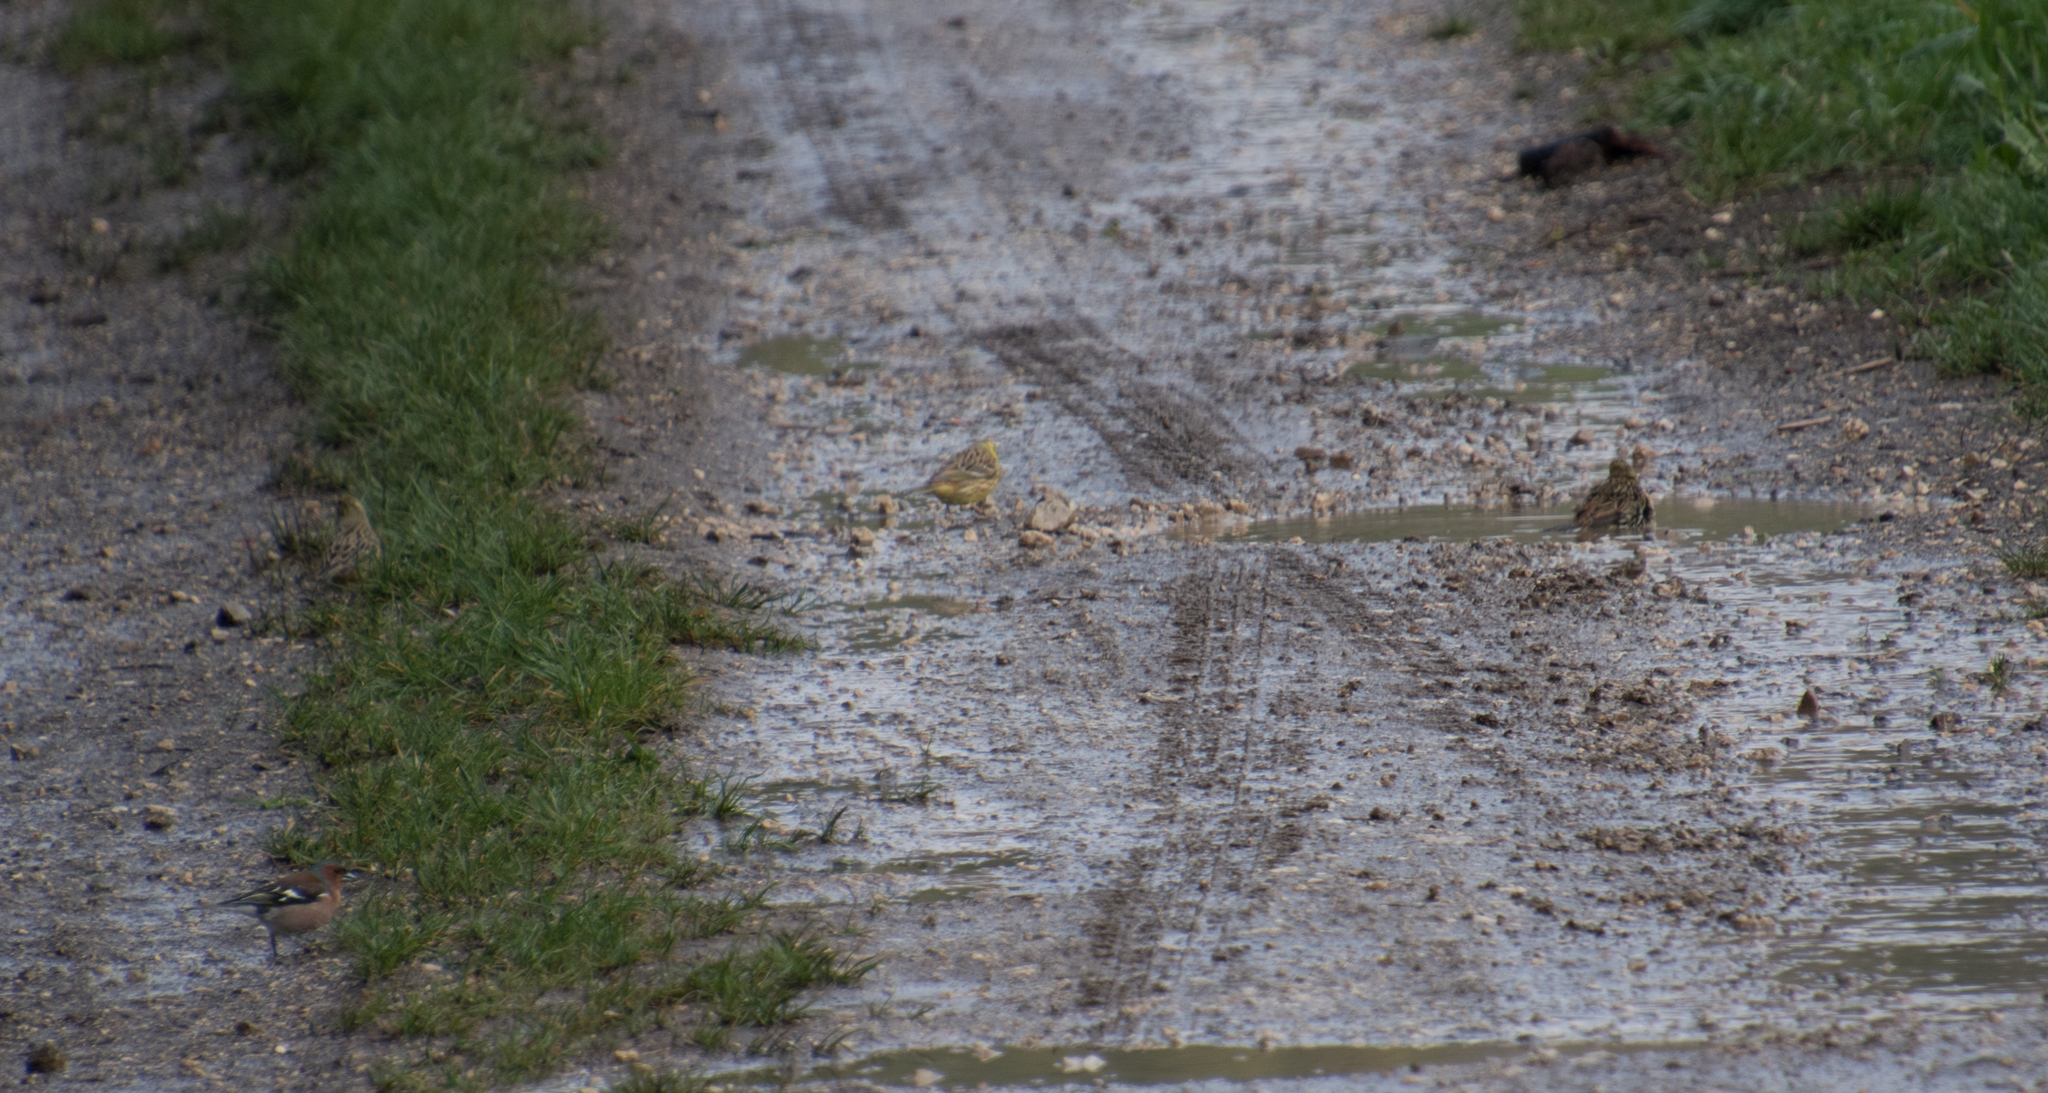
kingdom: Animalia
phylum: Chordata
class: Aves
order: Passeriformes
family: Emberizidae
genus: Emberiza
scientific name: Emberiza citrinella
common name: Yellowhammer
